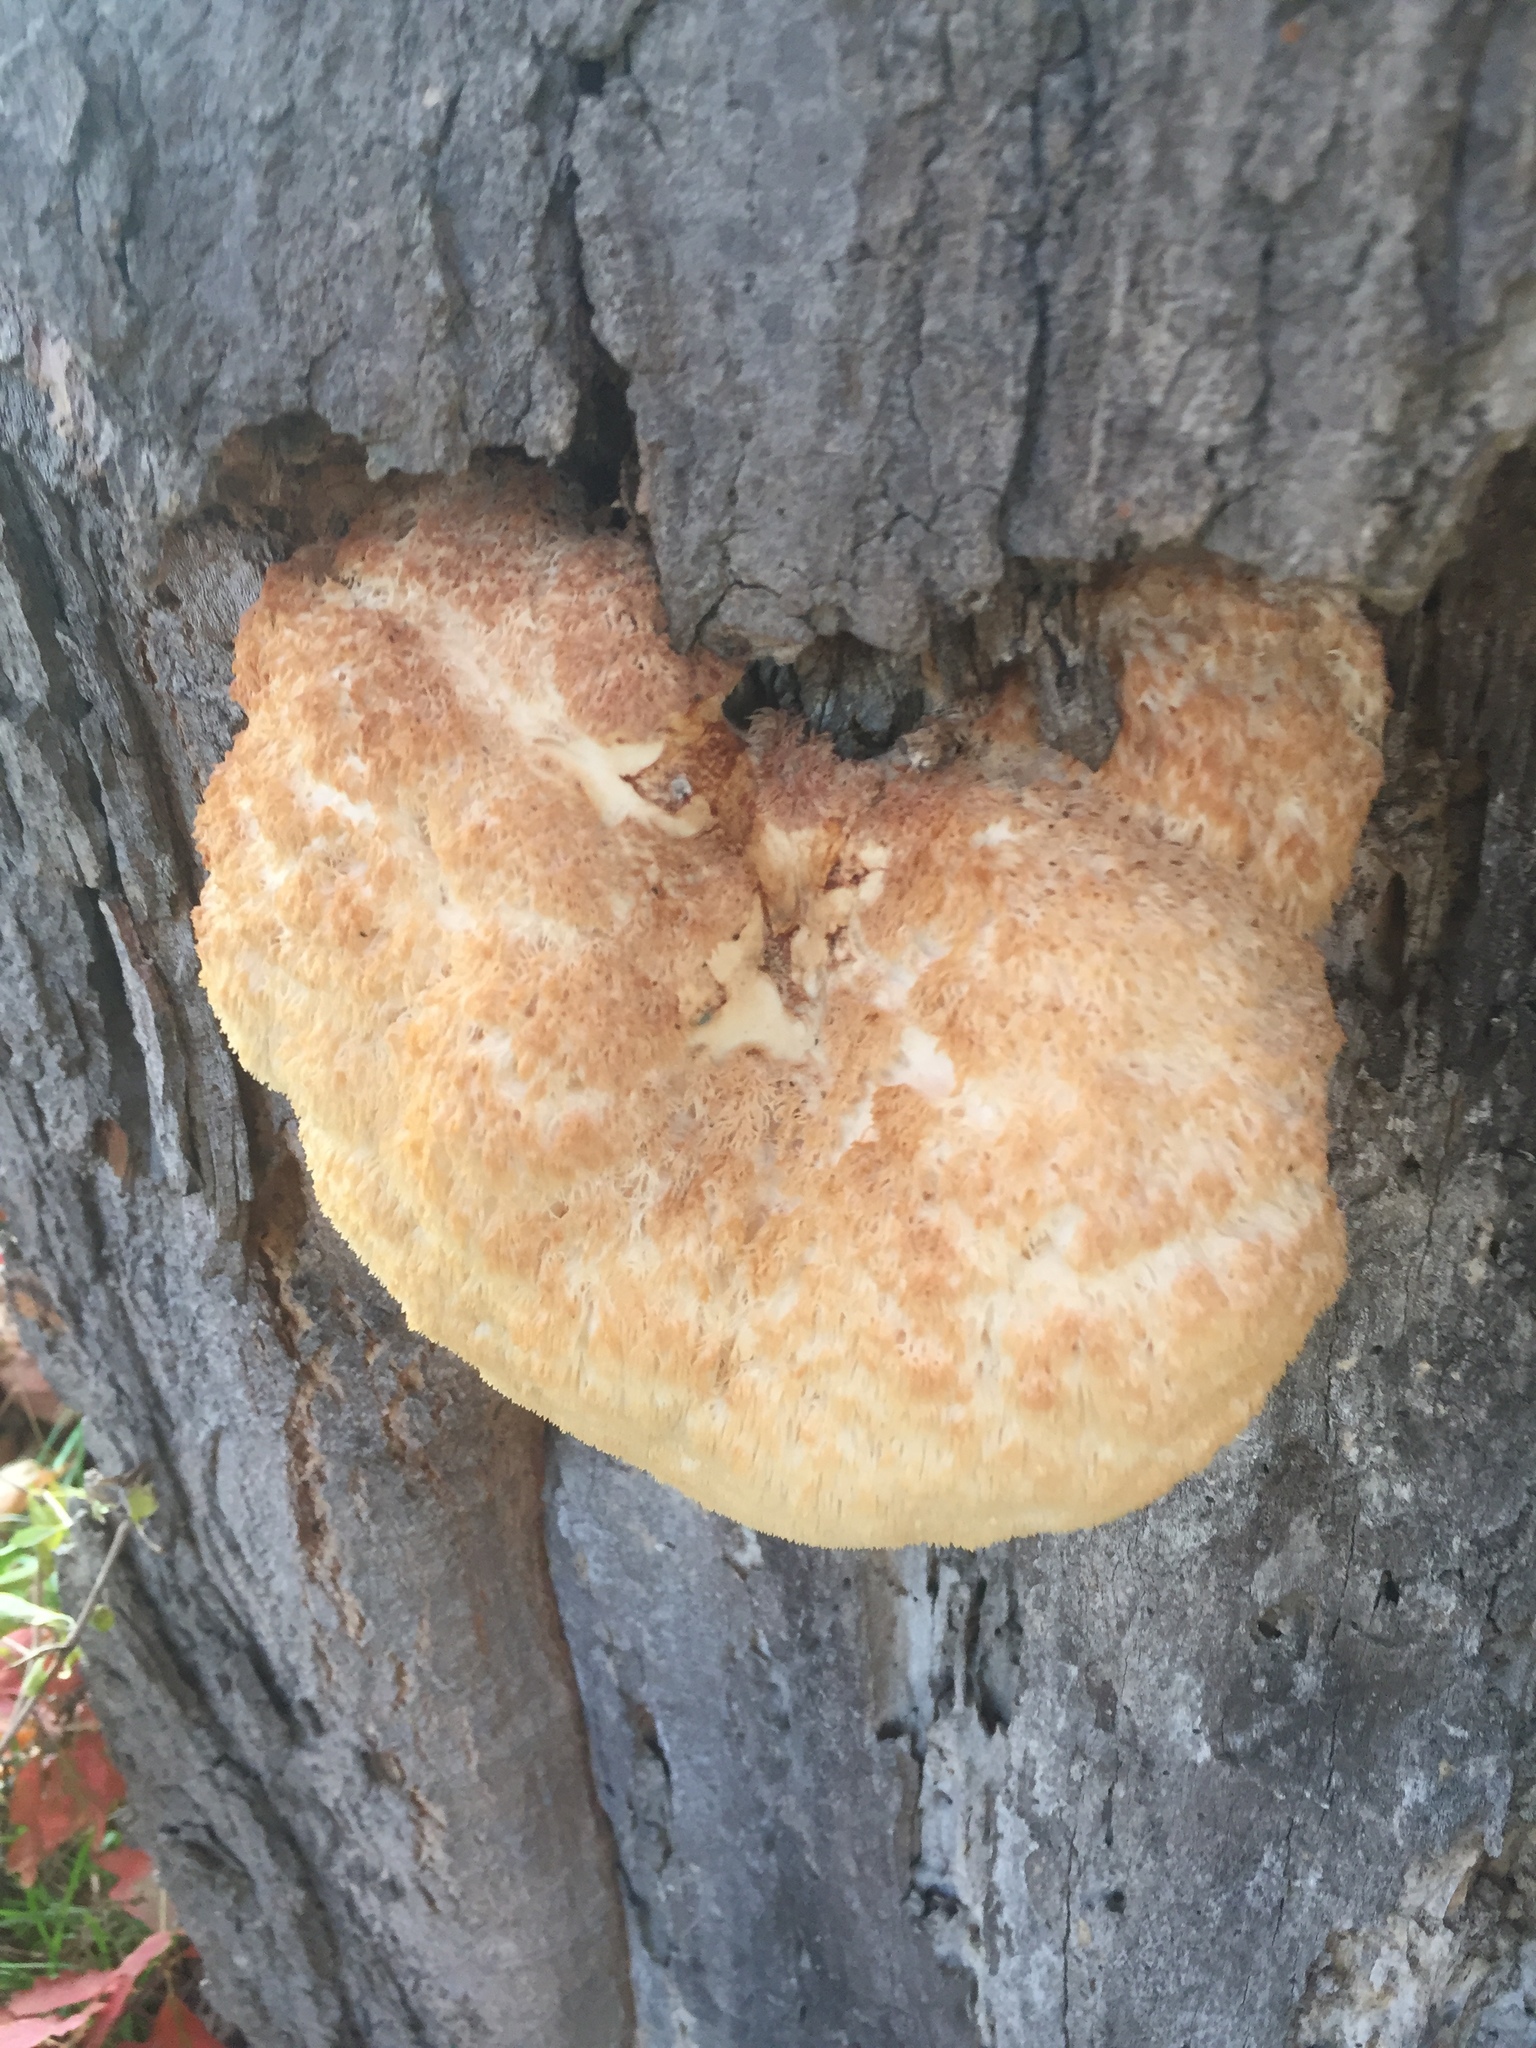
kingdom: Fungi
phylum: Basidiomycota
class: Agaricomycetes
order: Russulales
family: Hericiaceae
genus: Hericium
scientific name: Hericium erinaceus
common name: Bearded tooth
